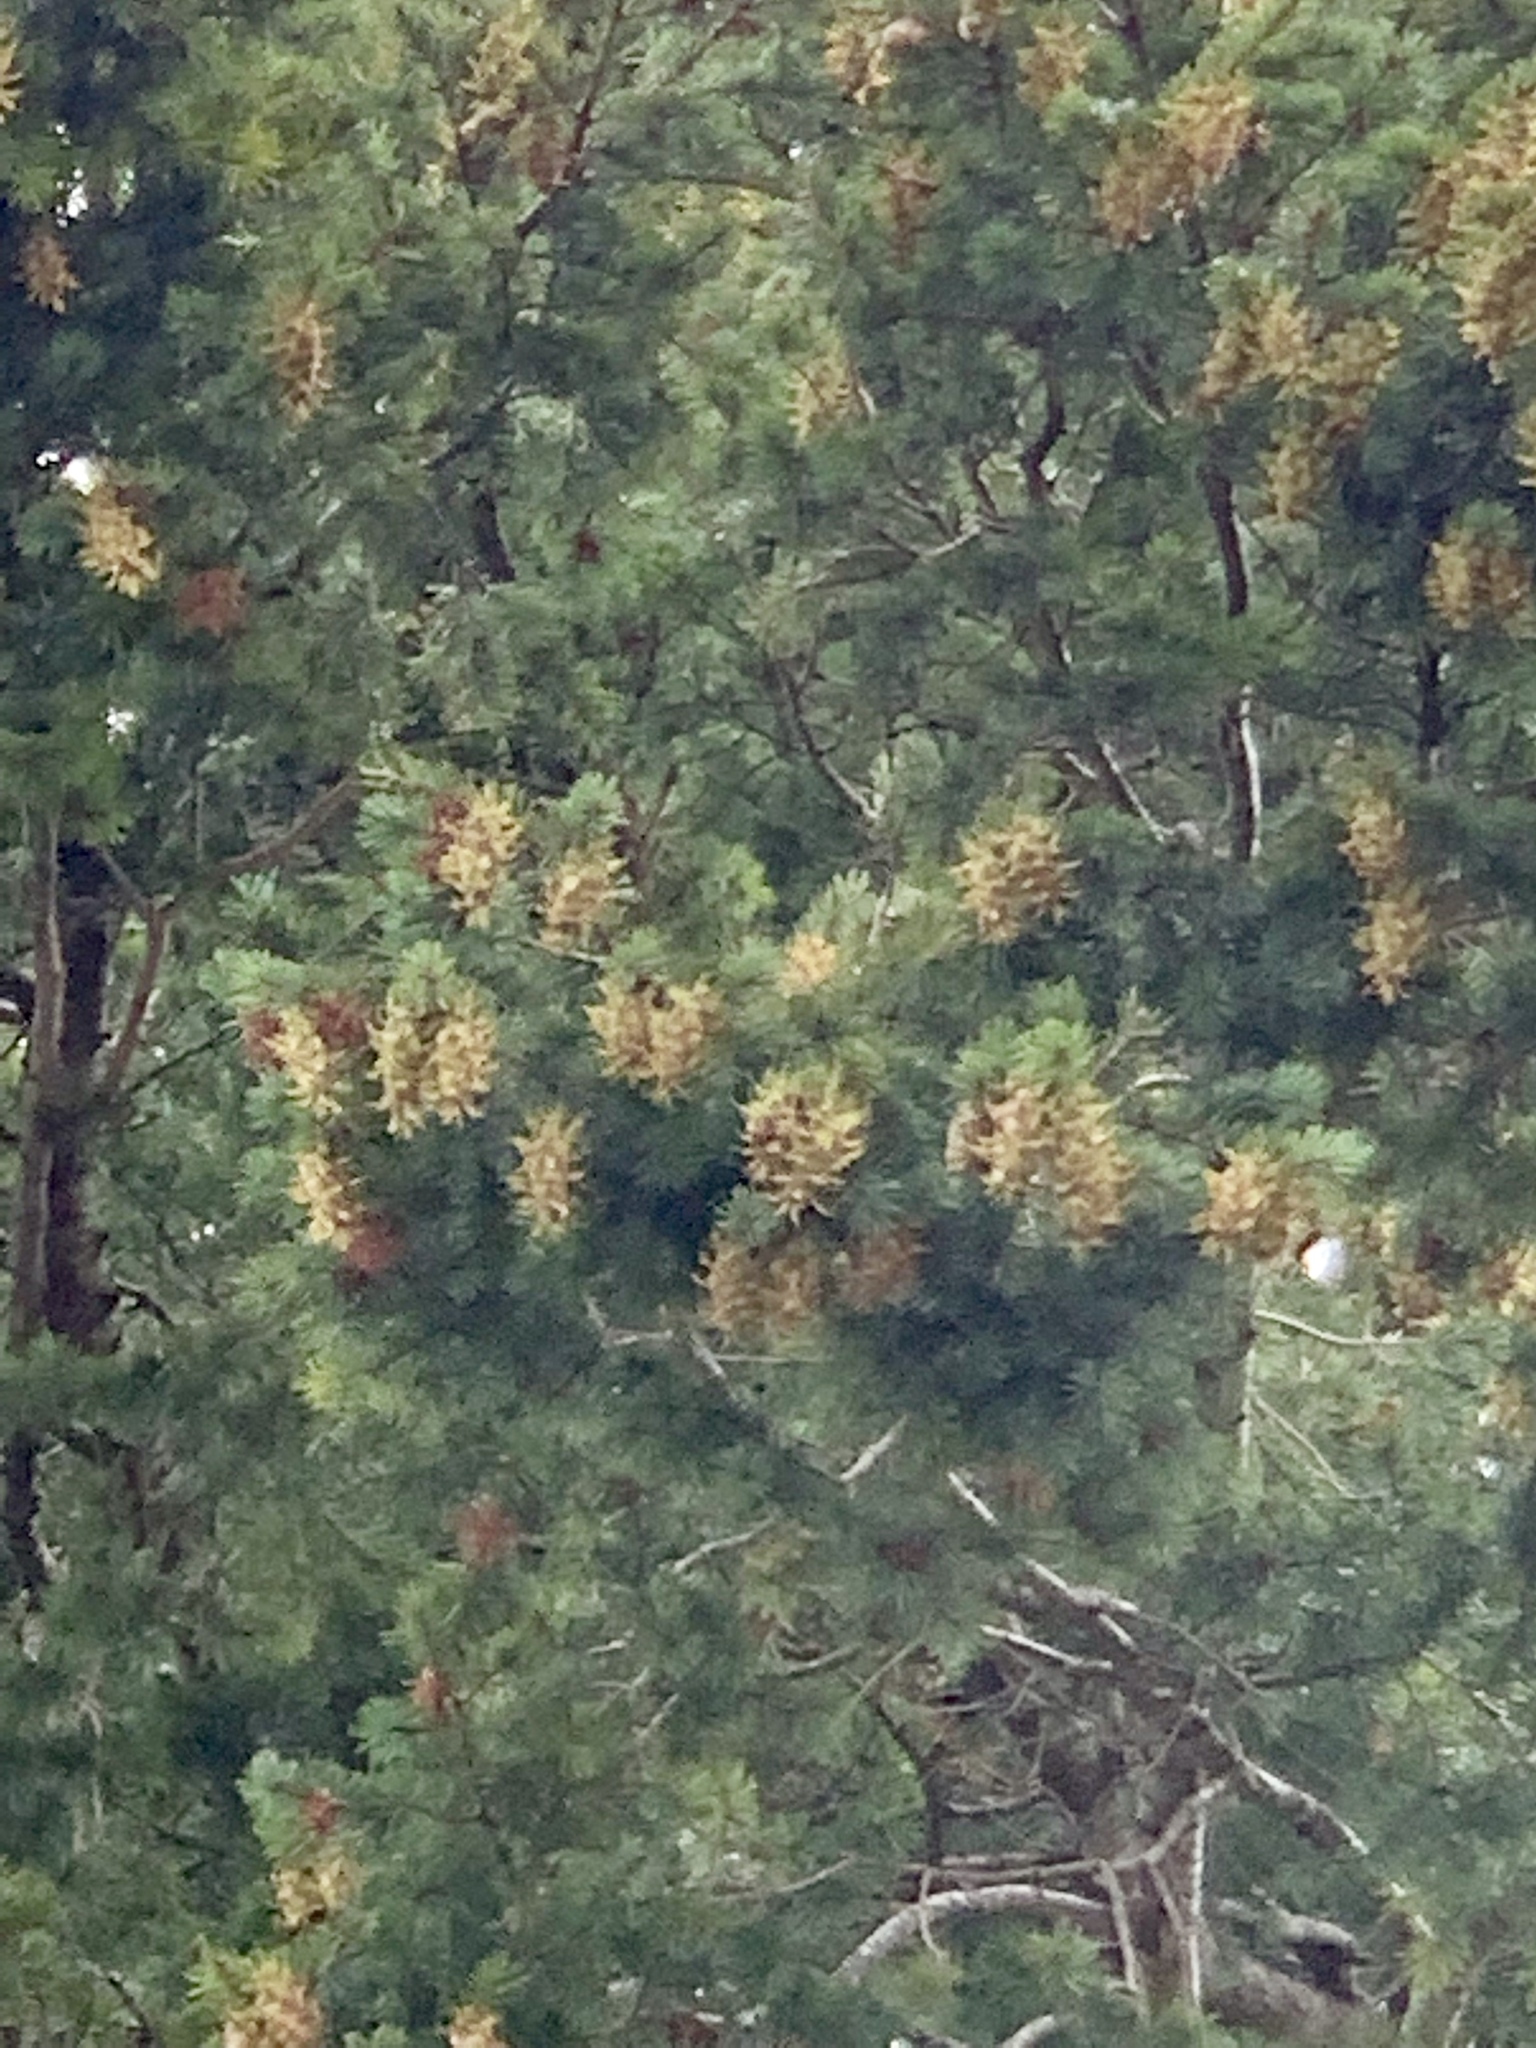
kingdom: Plantae
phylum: Tracheophyta
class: Pinopsida
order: Pinales
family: Pinaceae
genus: Pseudotsuga
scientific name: Pseudotsuga menziesii
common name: Douglas fir
